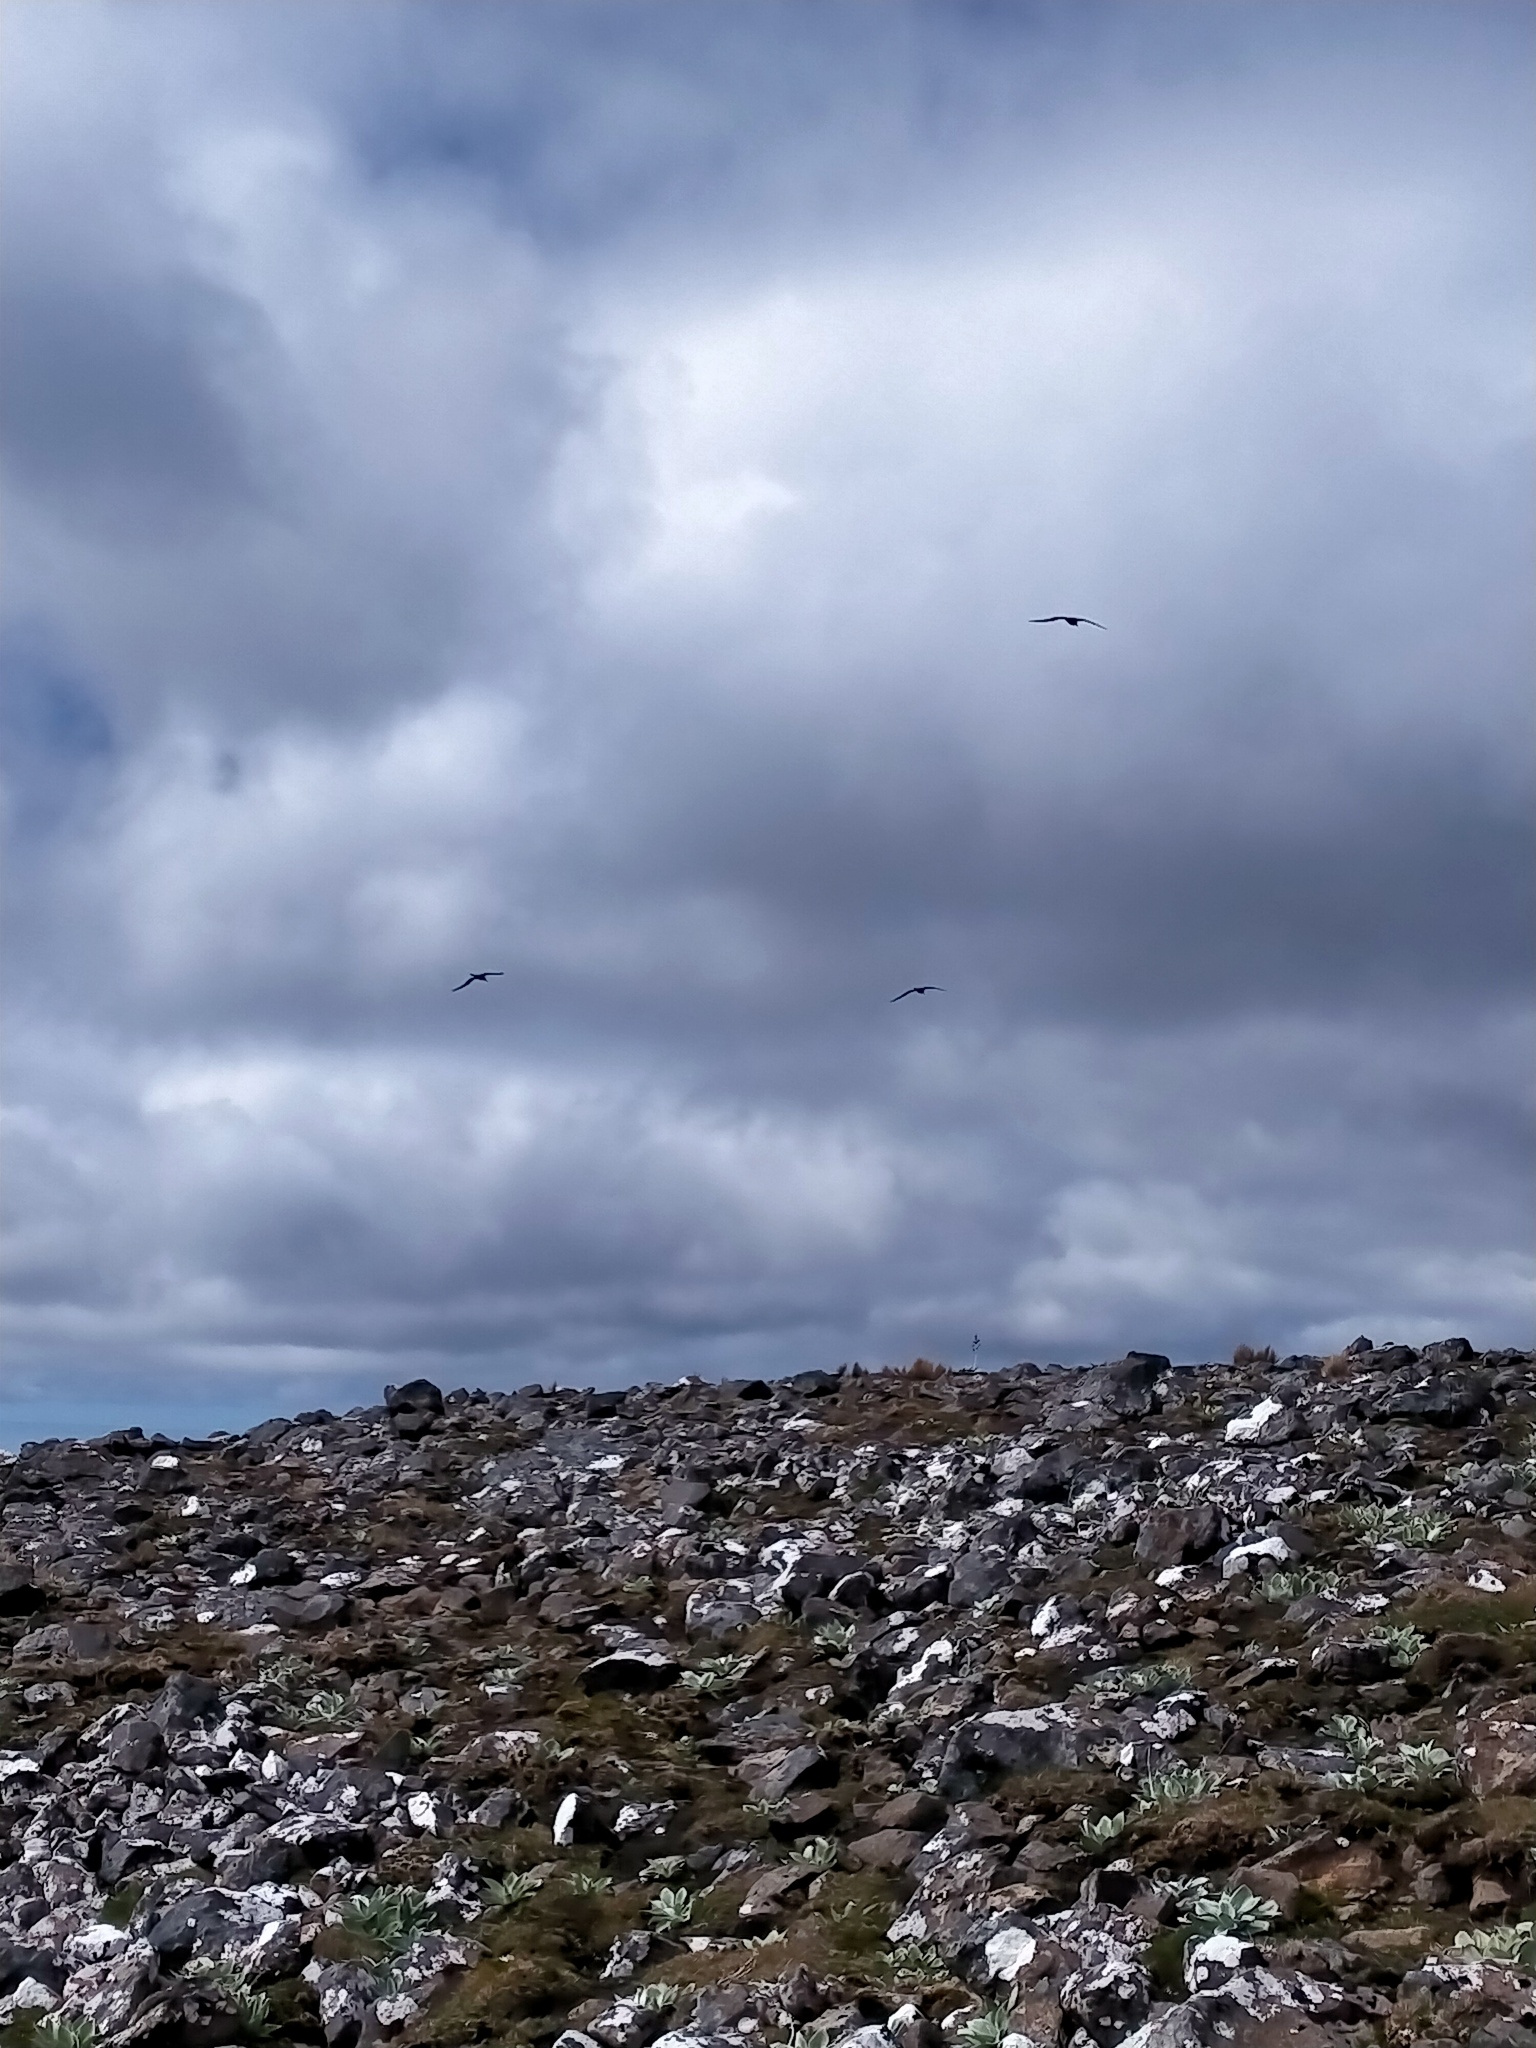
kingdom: Animalia
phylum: Chordata
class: Aves
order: Procellariiformes
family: Diomedeidae
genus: Phoebetria
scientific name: Phoebetria palpebrata
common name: Light-mantled albatross
